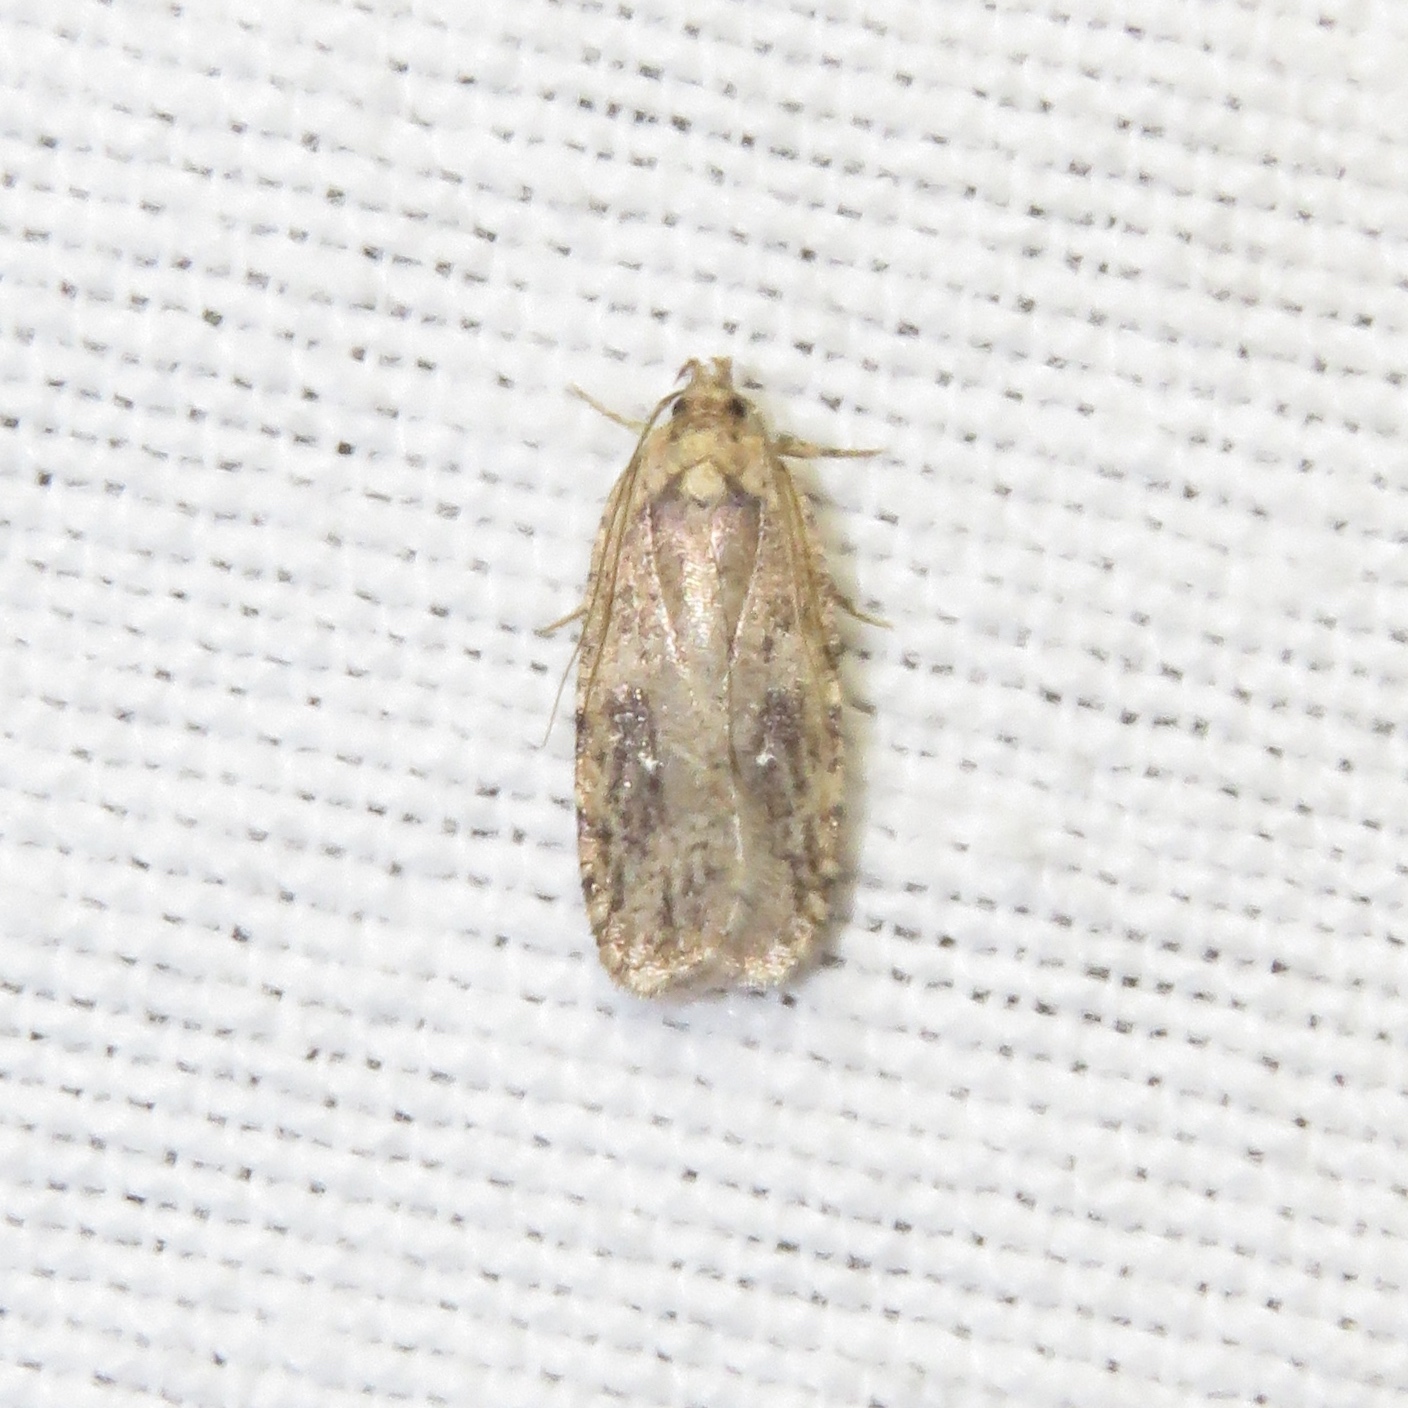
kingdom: Animalia
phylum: Arthropoda
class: Insecta
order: Lepidoptera
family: Depressariidae
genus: Agonopterix
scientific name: Agonopterix pulvipennella
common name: Goldenrod leafffolder
